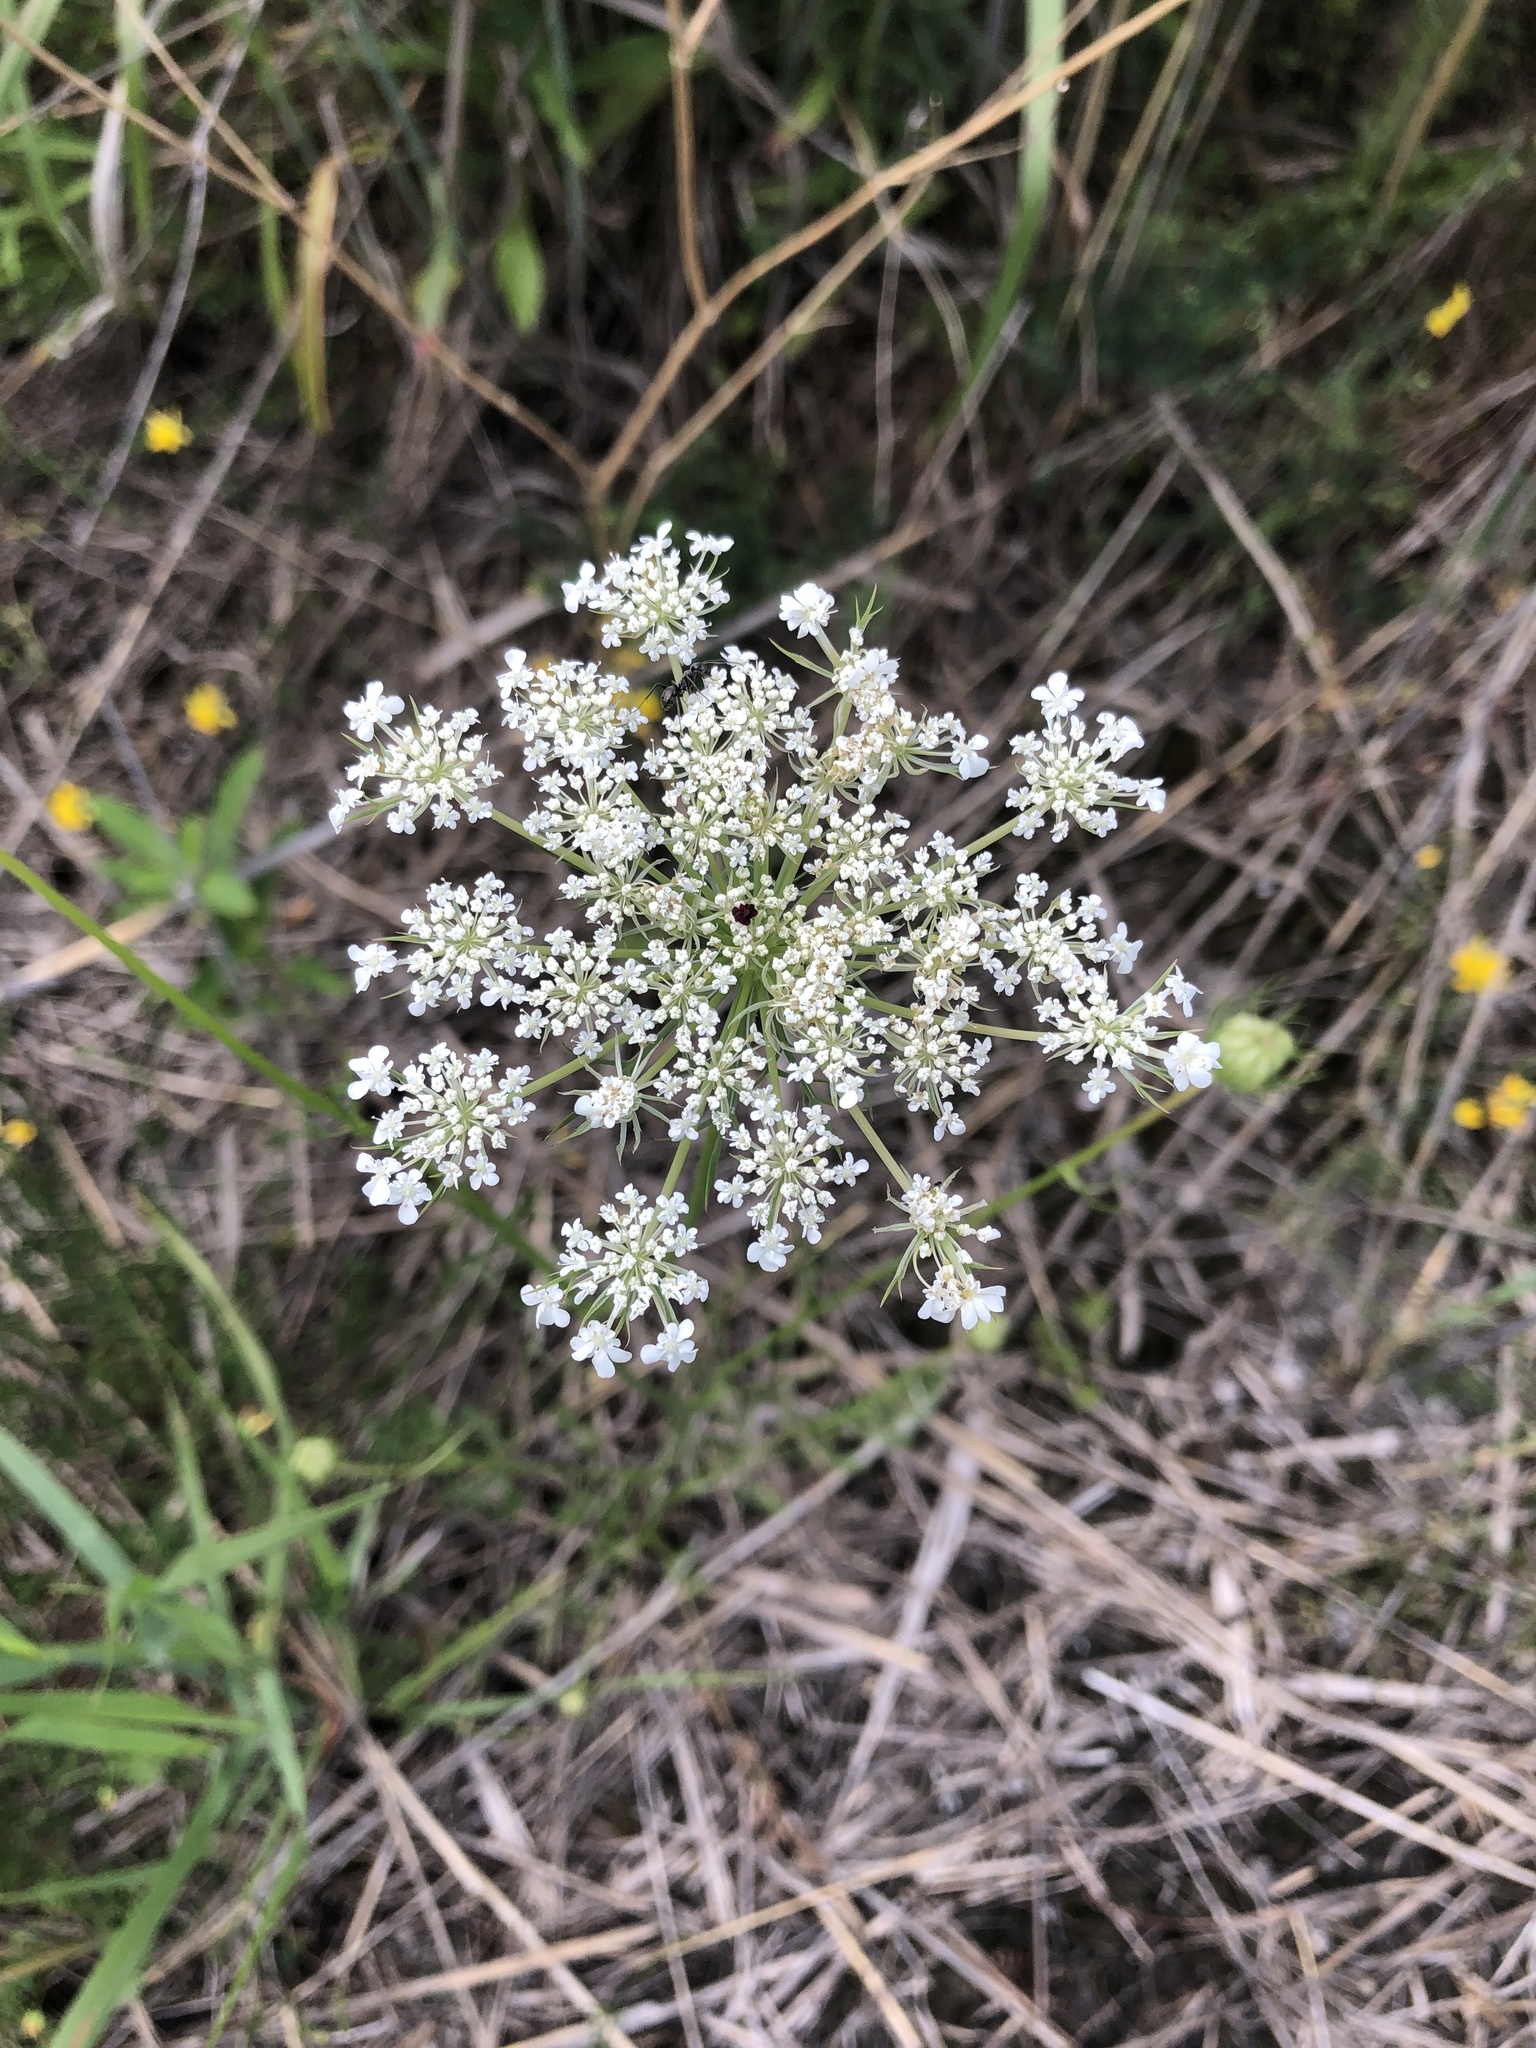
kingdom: Plantae
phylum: Tracheophyta
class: Magnoliopsida
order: Apiales
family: Apiaceae
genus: Daucus
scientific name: Daucus carota
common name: Wild carrot
